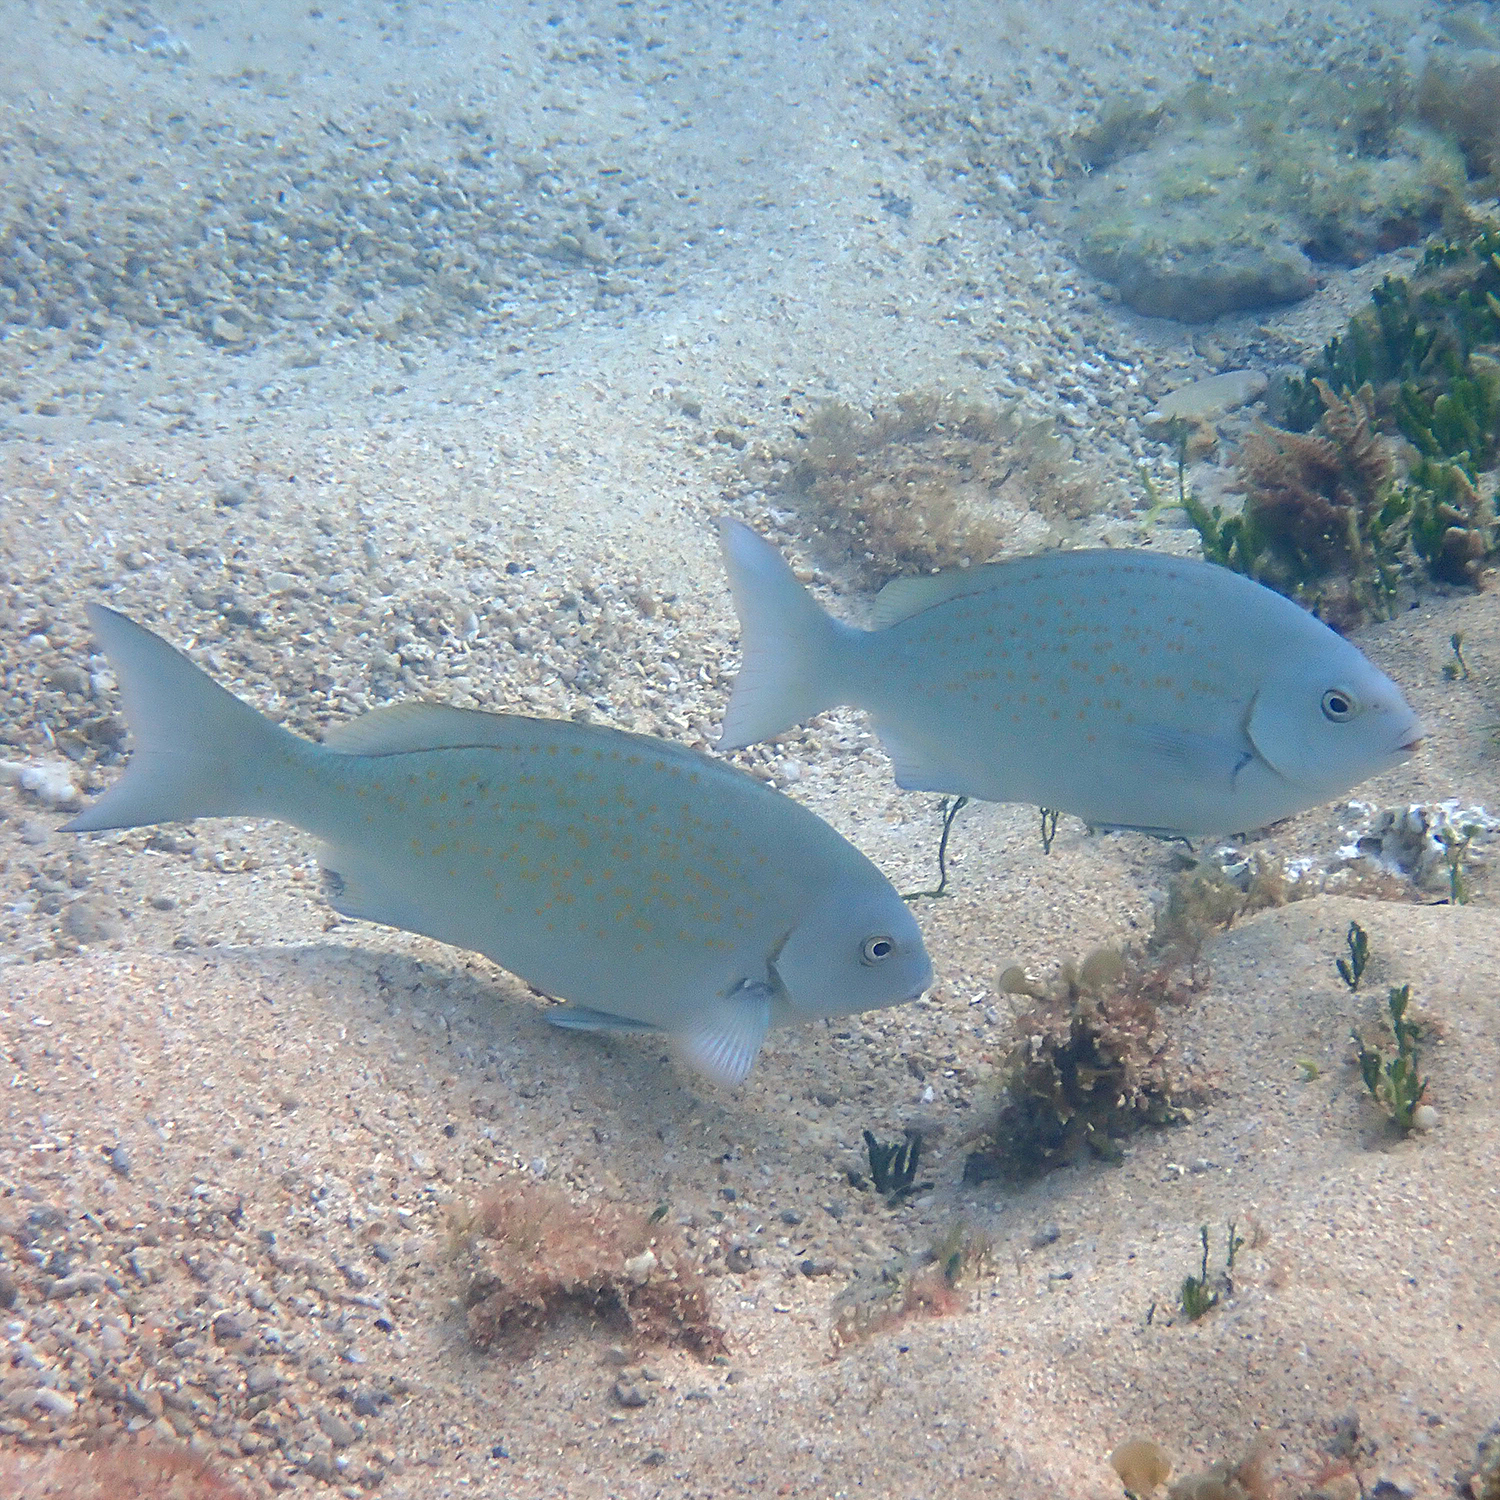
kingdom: Animalia
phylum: Chordata
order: Perciformes
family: Kyphosidae
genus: Girella
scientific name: Girella cyanea
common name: Bluefish
